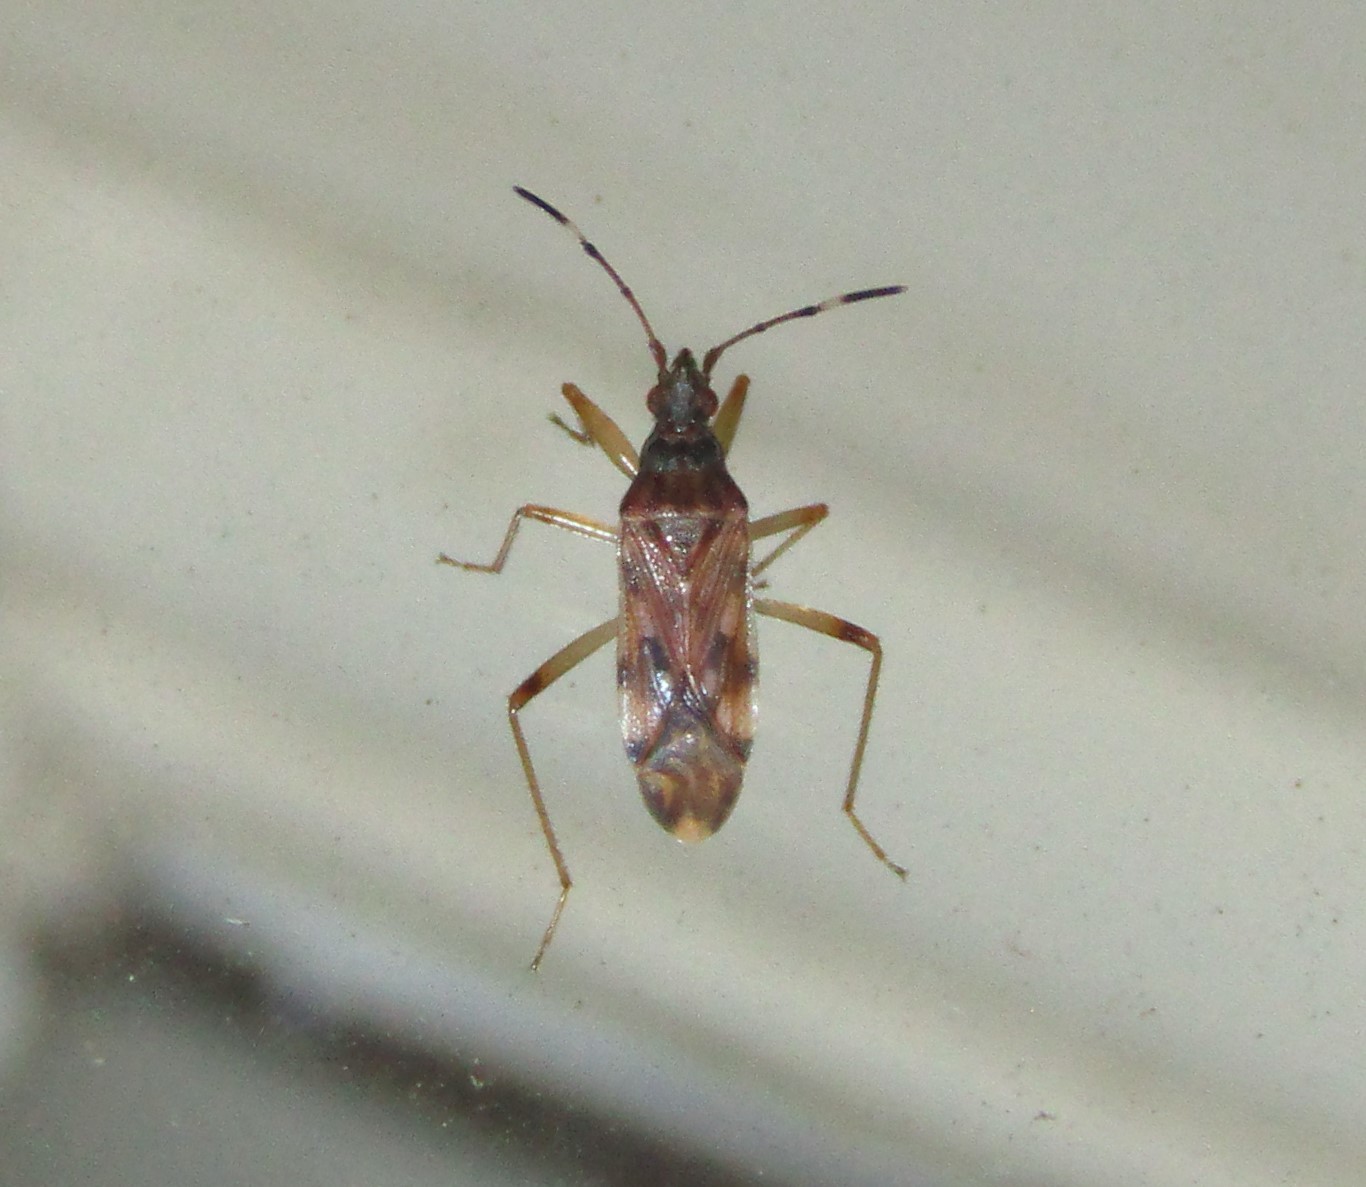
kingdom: Animalia
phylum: Arthropoda
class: Insecta
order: Hemiptera
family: Rhyparochromidae
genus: Ozophora
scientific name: Ozophora picturata
